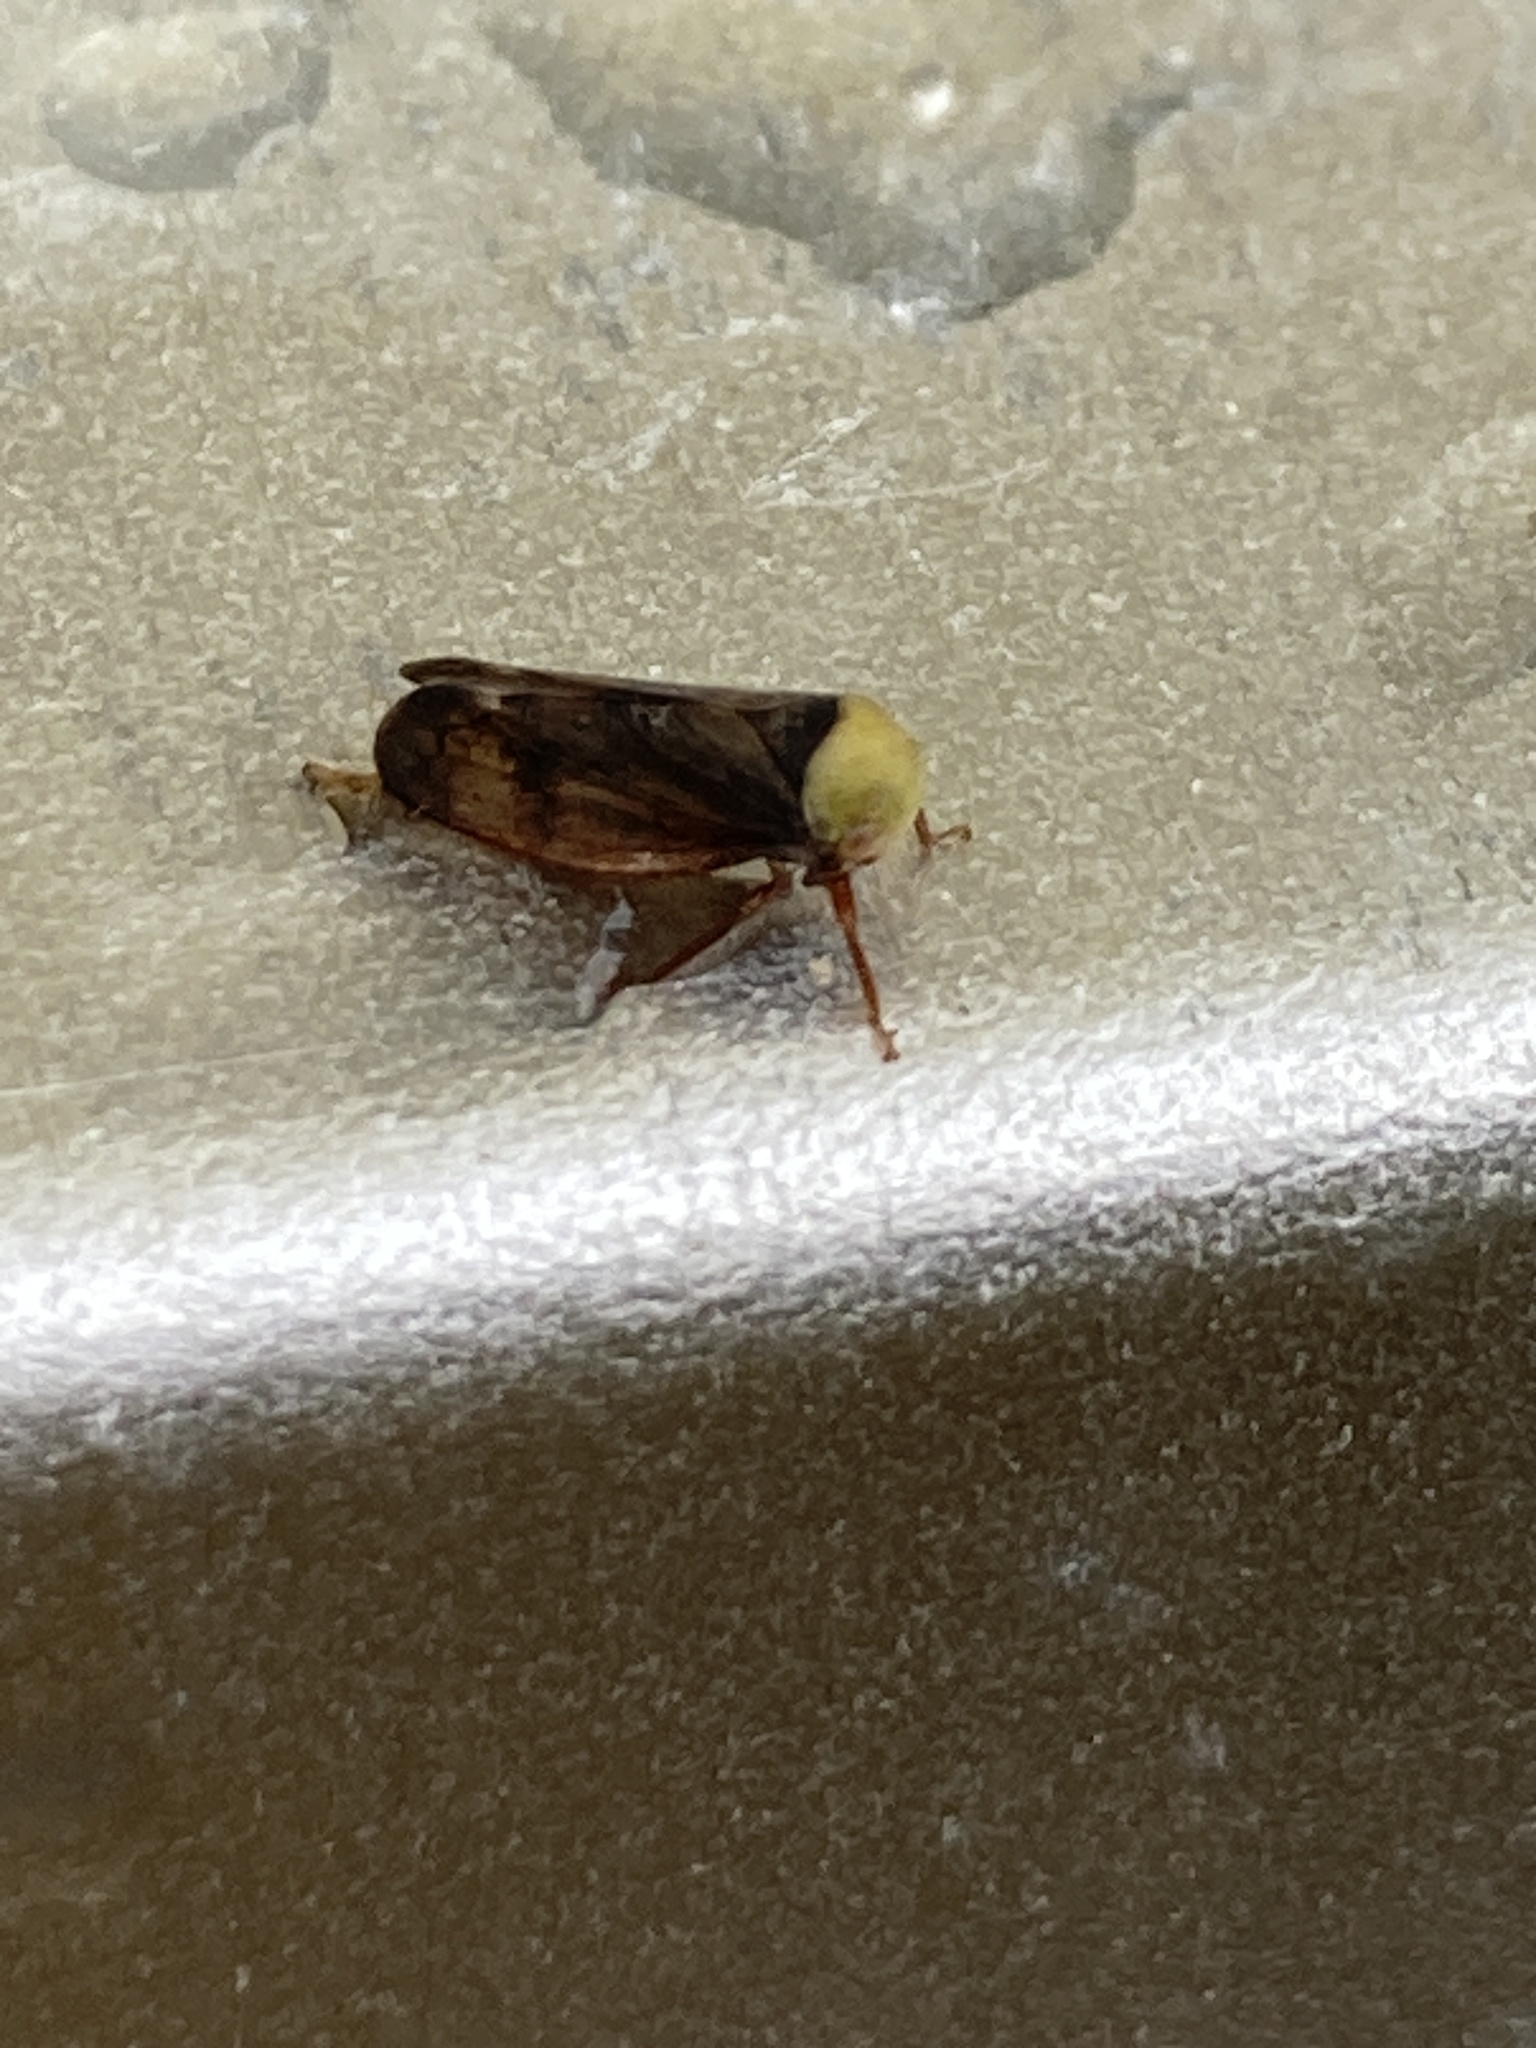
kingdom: Animalia
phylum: Arthropoda
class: Insecta
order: Hemiptera
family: Cicadellidae
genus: Pediopsis
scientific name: Pediopsis tiliae
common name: Leafhopper
